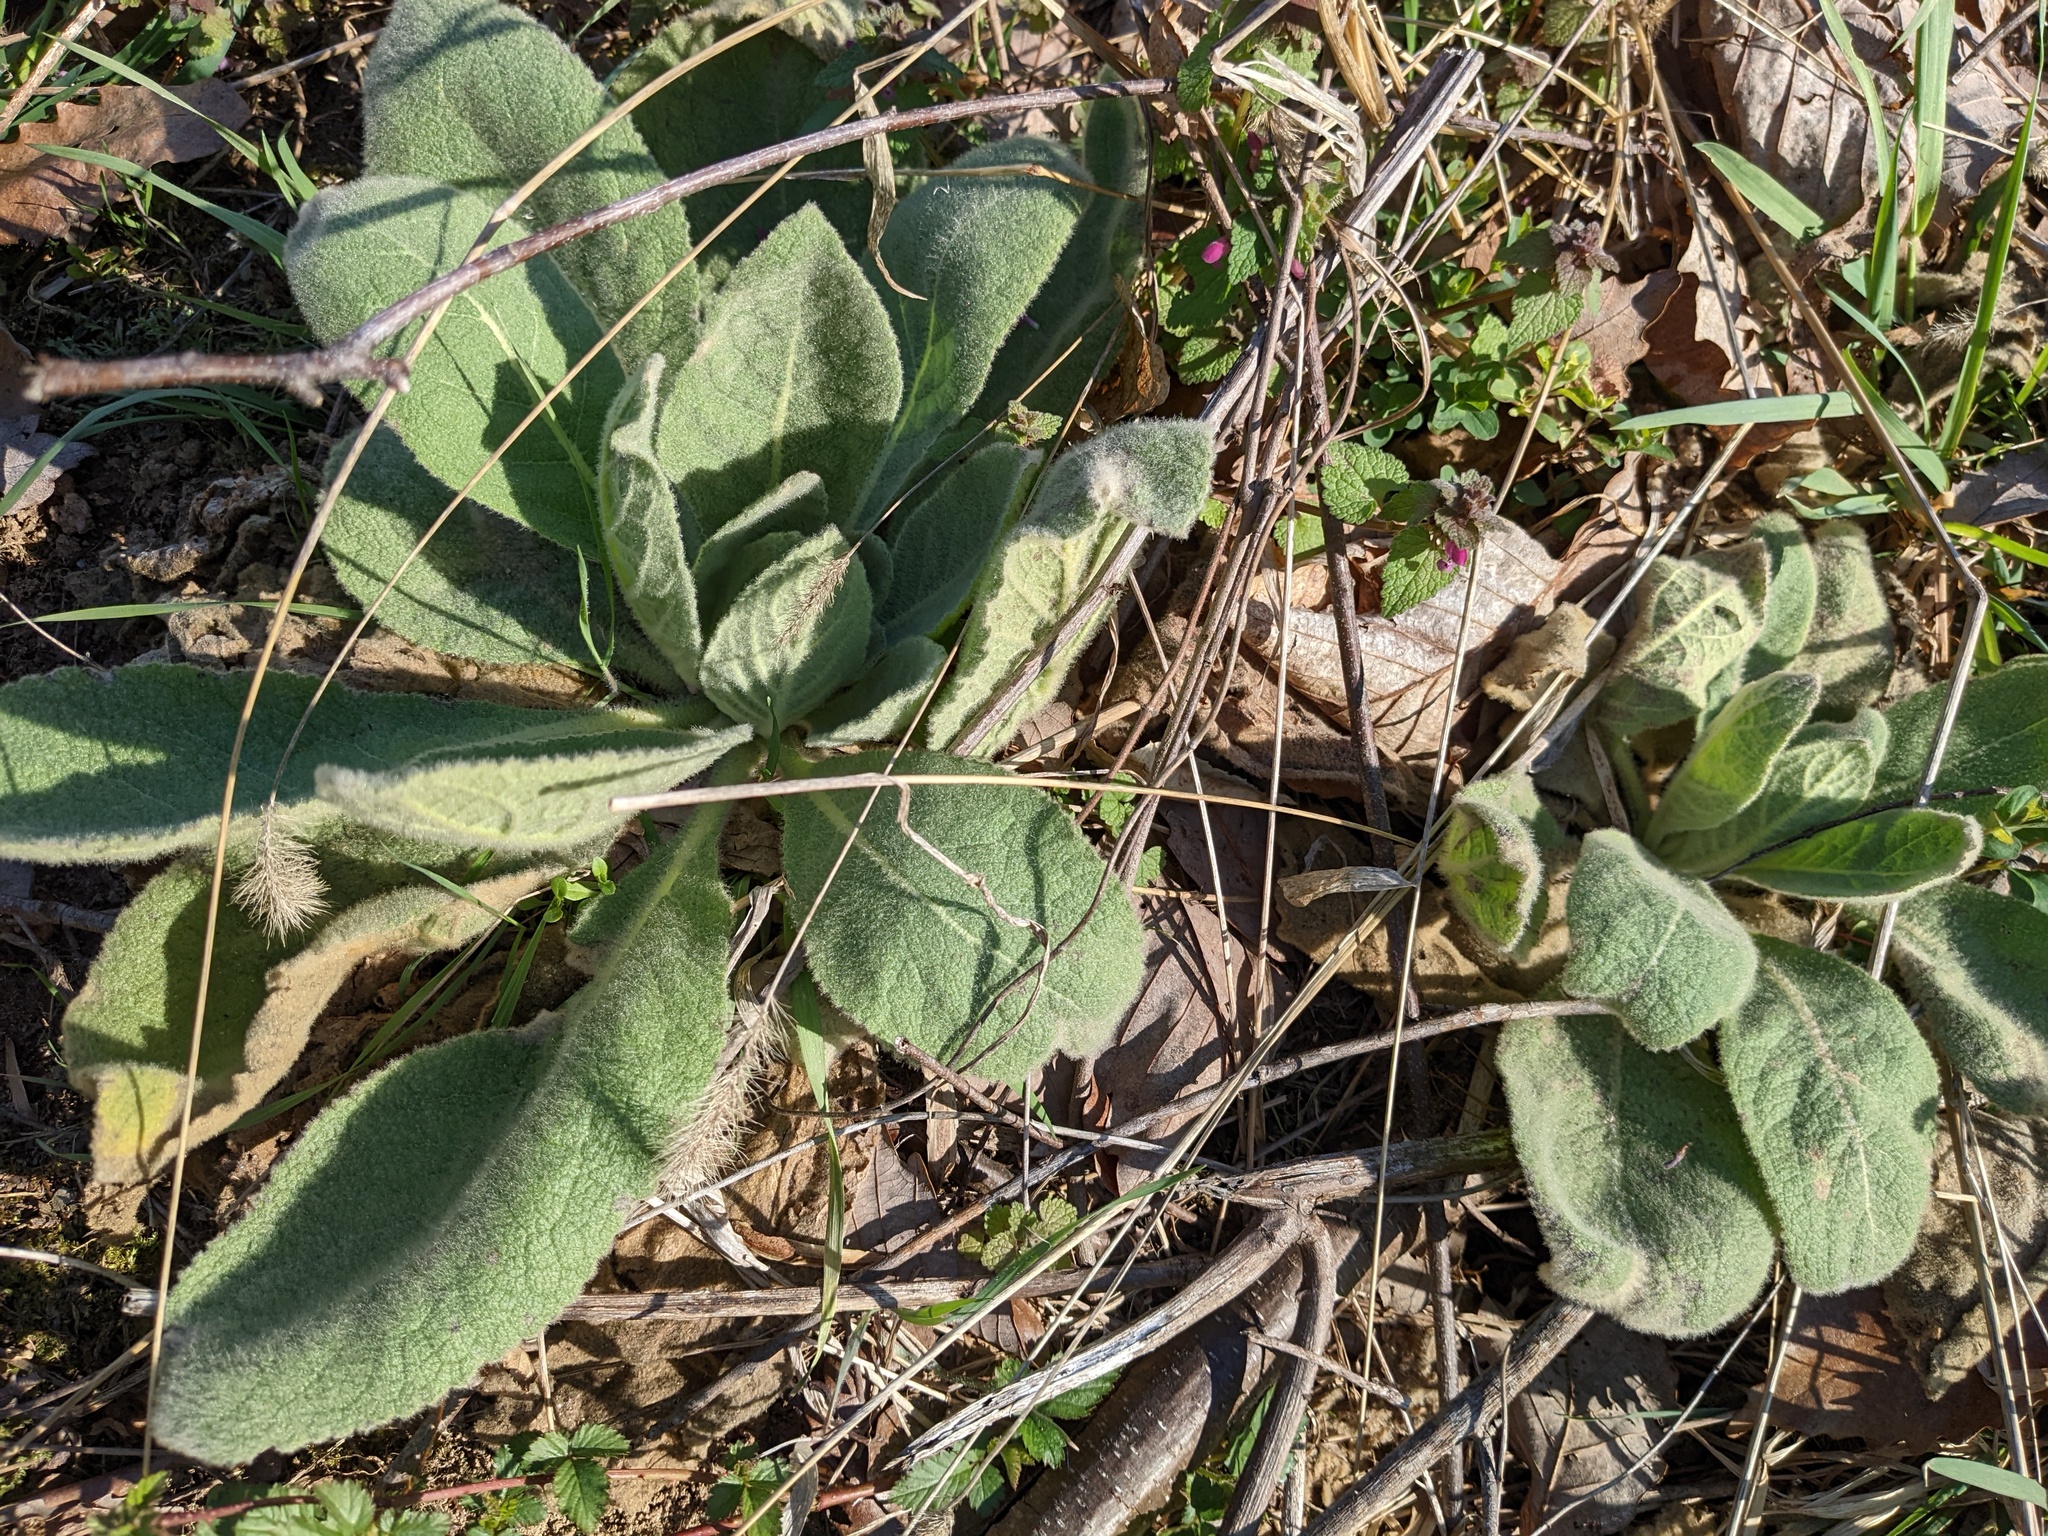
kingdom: Plantae
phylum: Tracheophyta
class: Magnoliopsida
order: Lamiales
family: Scrophulariaceae
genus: Verbascum
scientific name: Verbascum thapsus
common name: Common mullein
